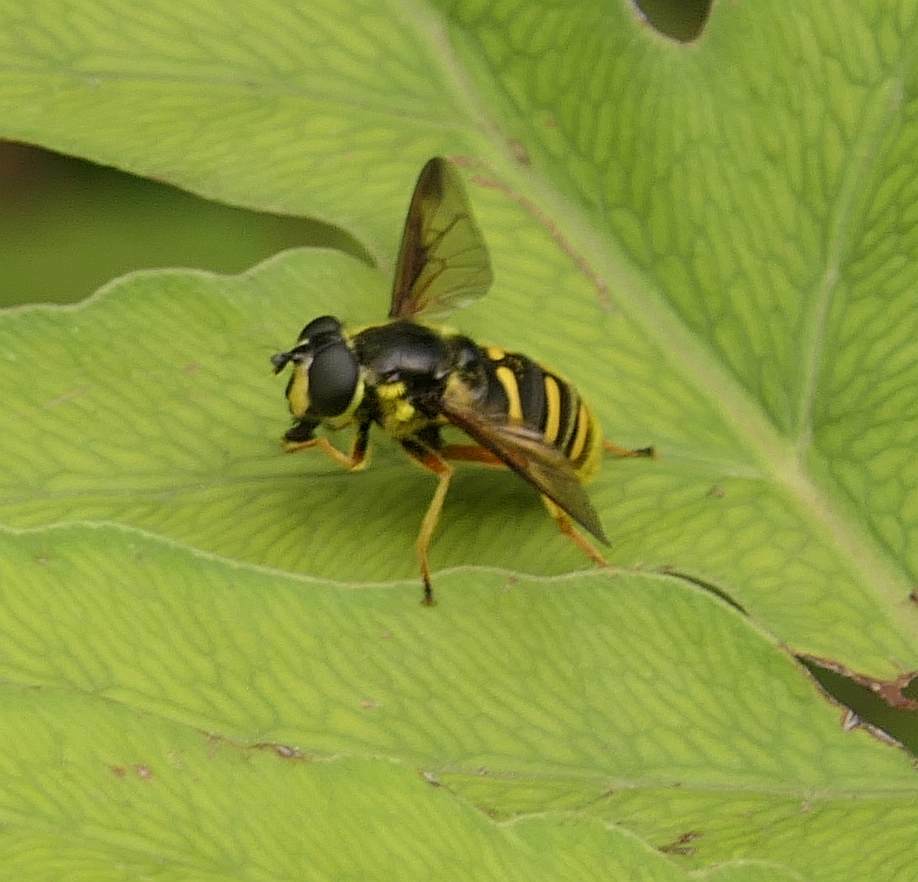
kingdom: Animalia
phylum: Arthropoda
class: Insecta
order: Diptera
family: Syrphidae
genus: Sericomyia
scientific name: Sericomyia chrysotoxoides
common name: Oblique-banded pond fly
